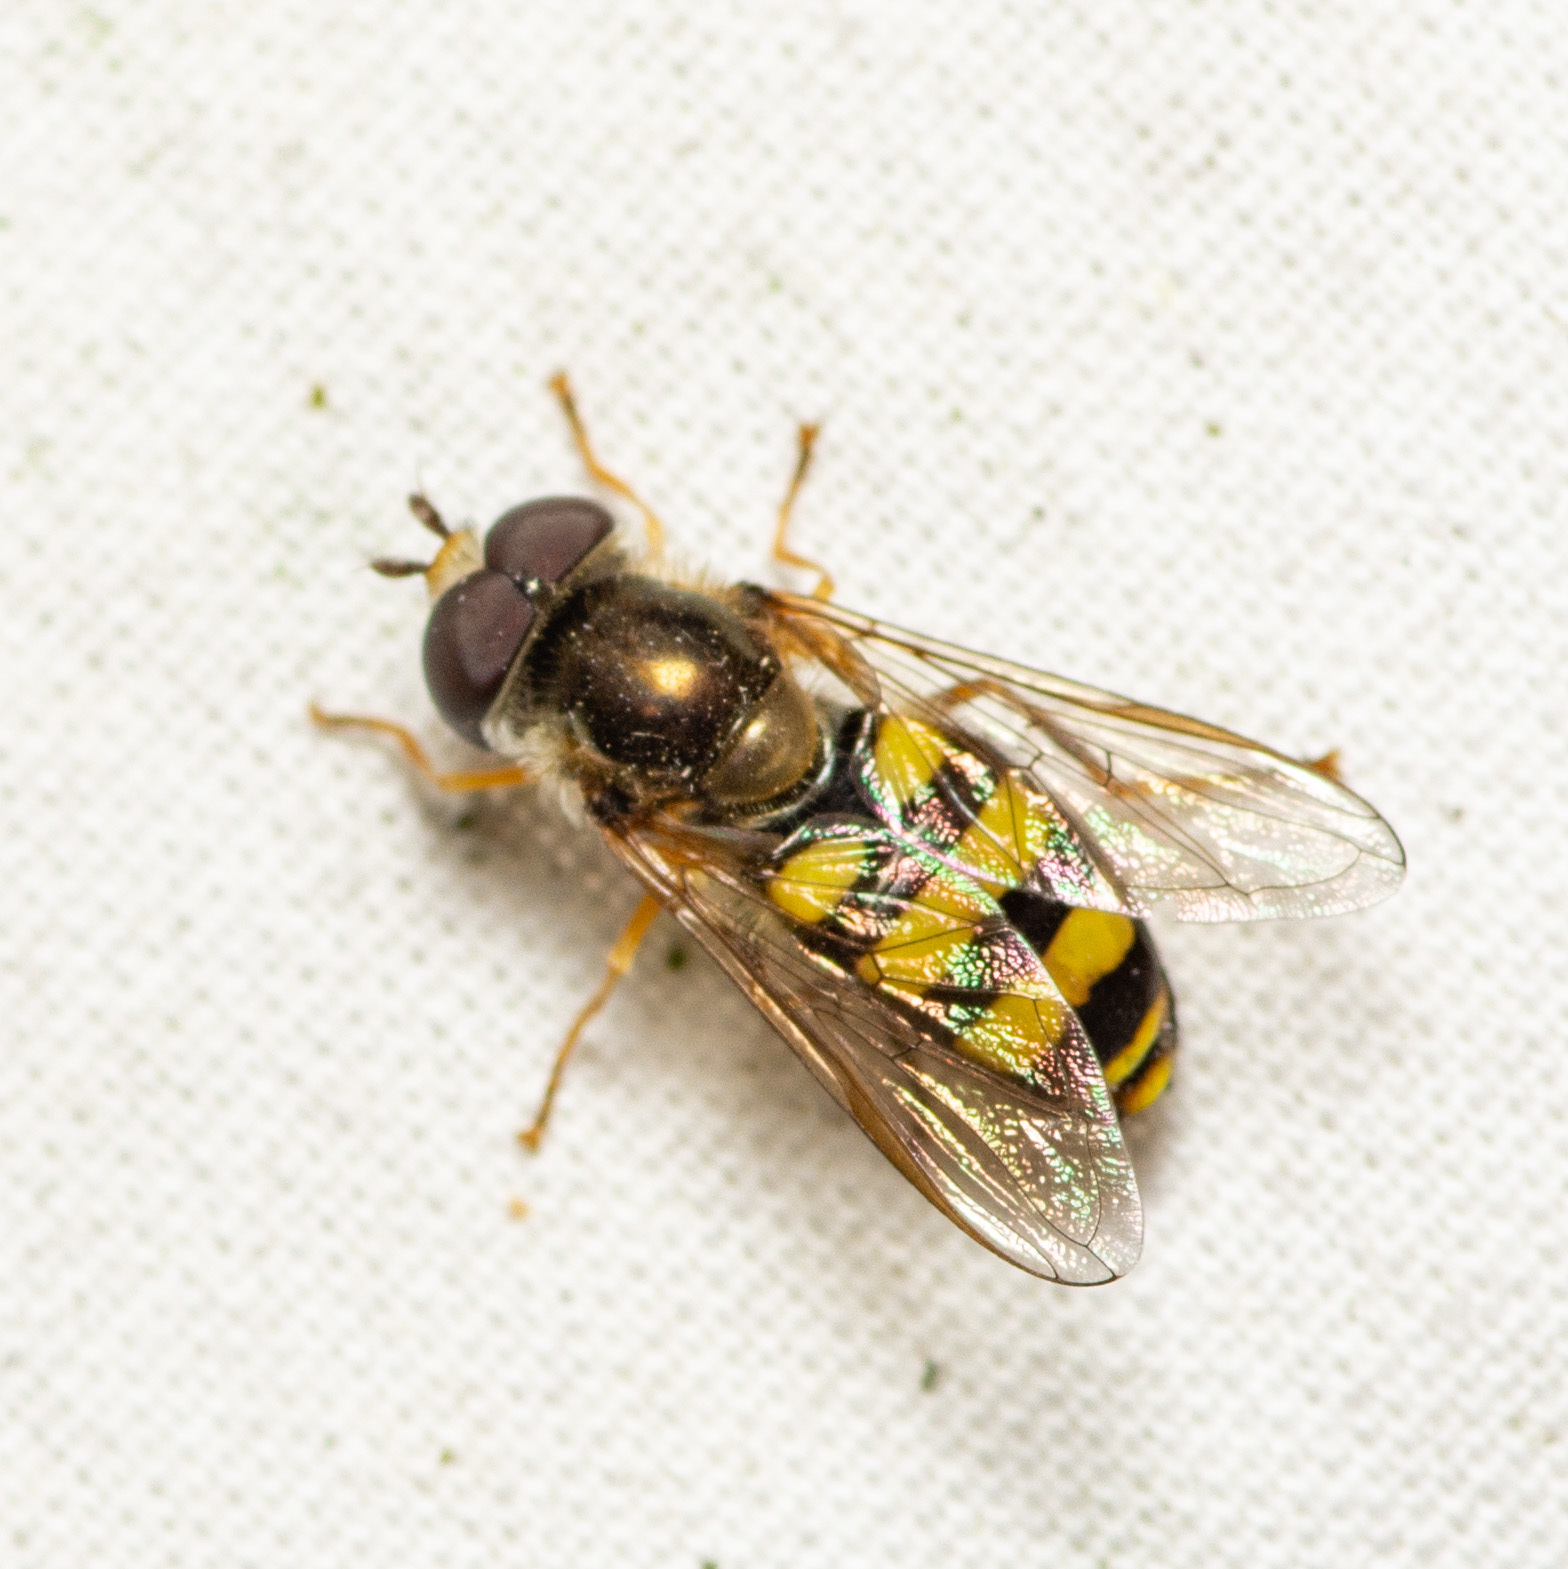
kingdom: Animalia
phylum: Arthropoda
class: Insecta
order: Diptera
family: Syrphidae
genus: Eupeodes
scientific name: Eupeodes
